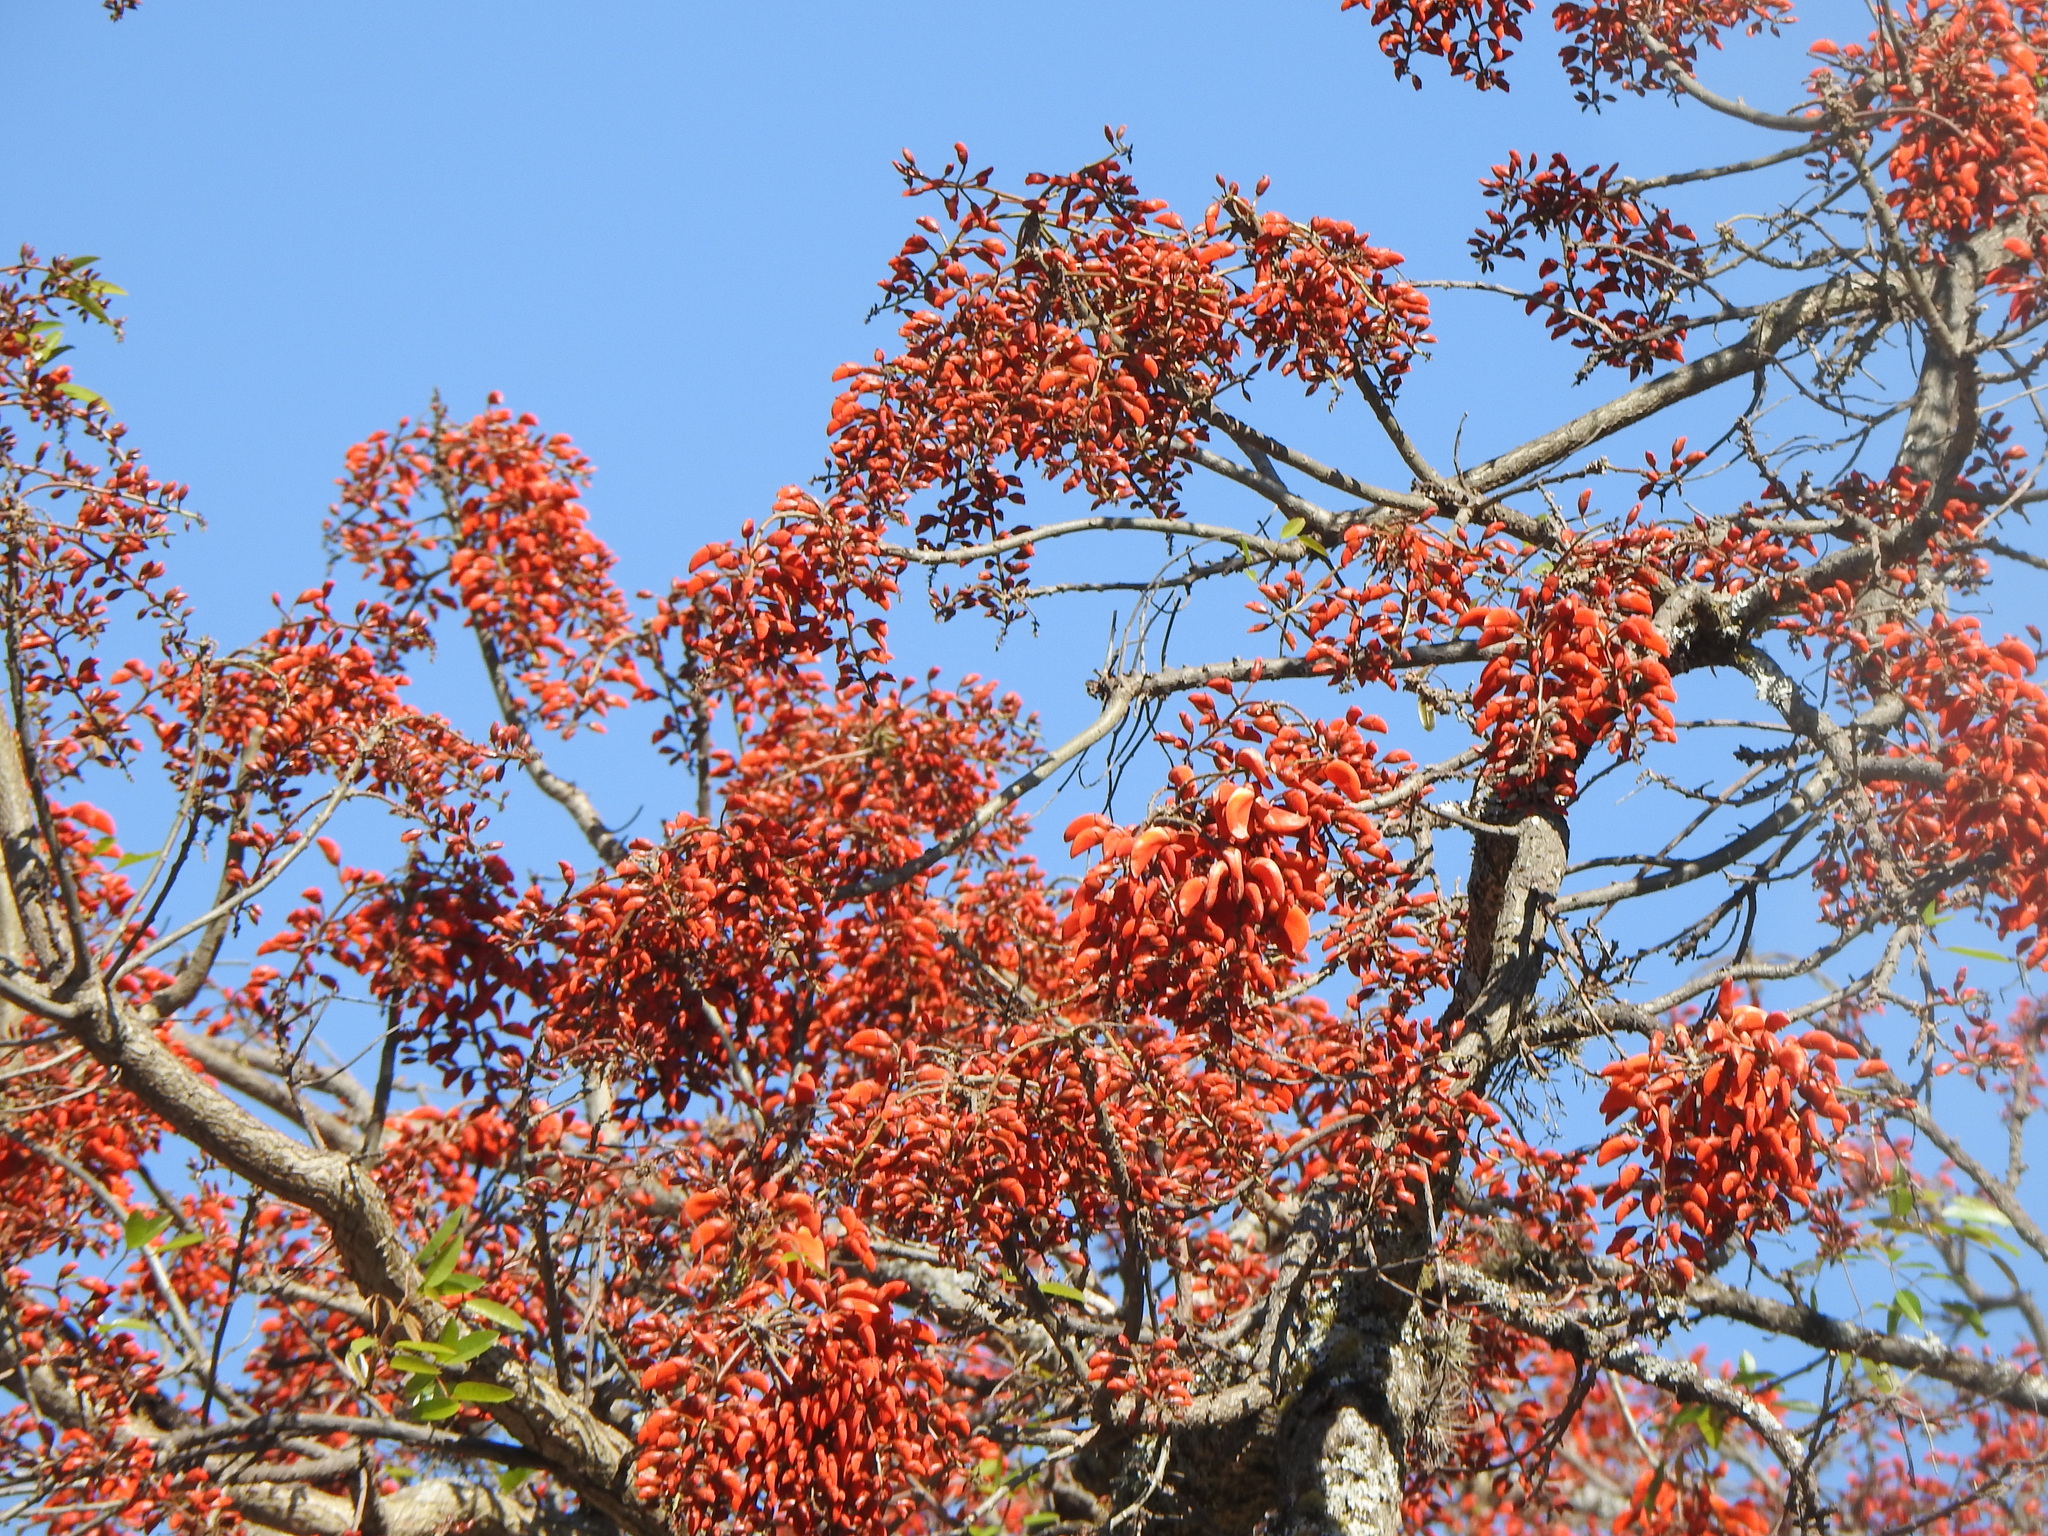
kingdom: Plantae
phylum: Tracheophyta
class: Magnoliopsida
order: Fabales
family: Fabaceae
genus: Erythrina
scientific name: Erythrina falcata
